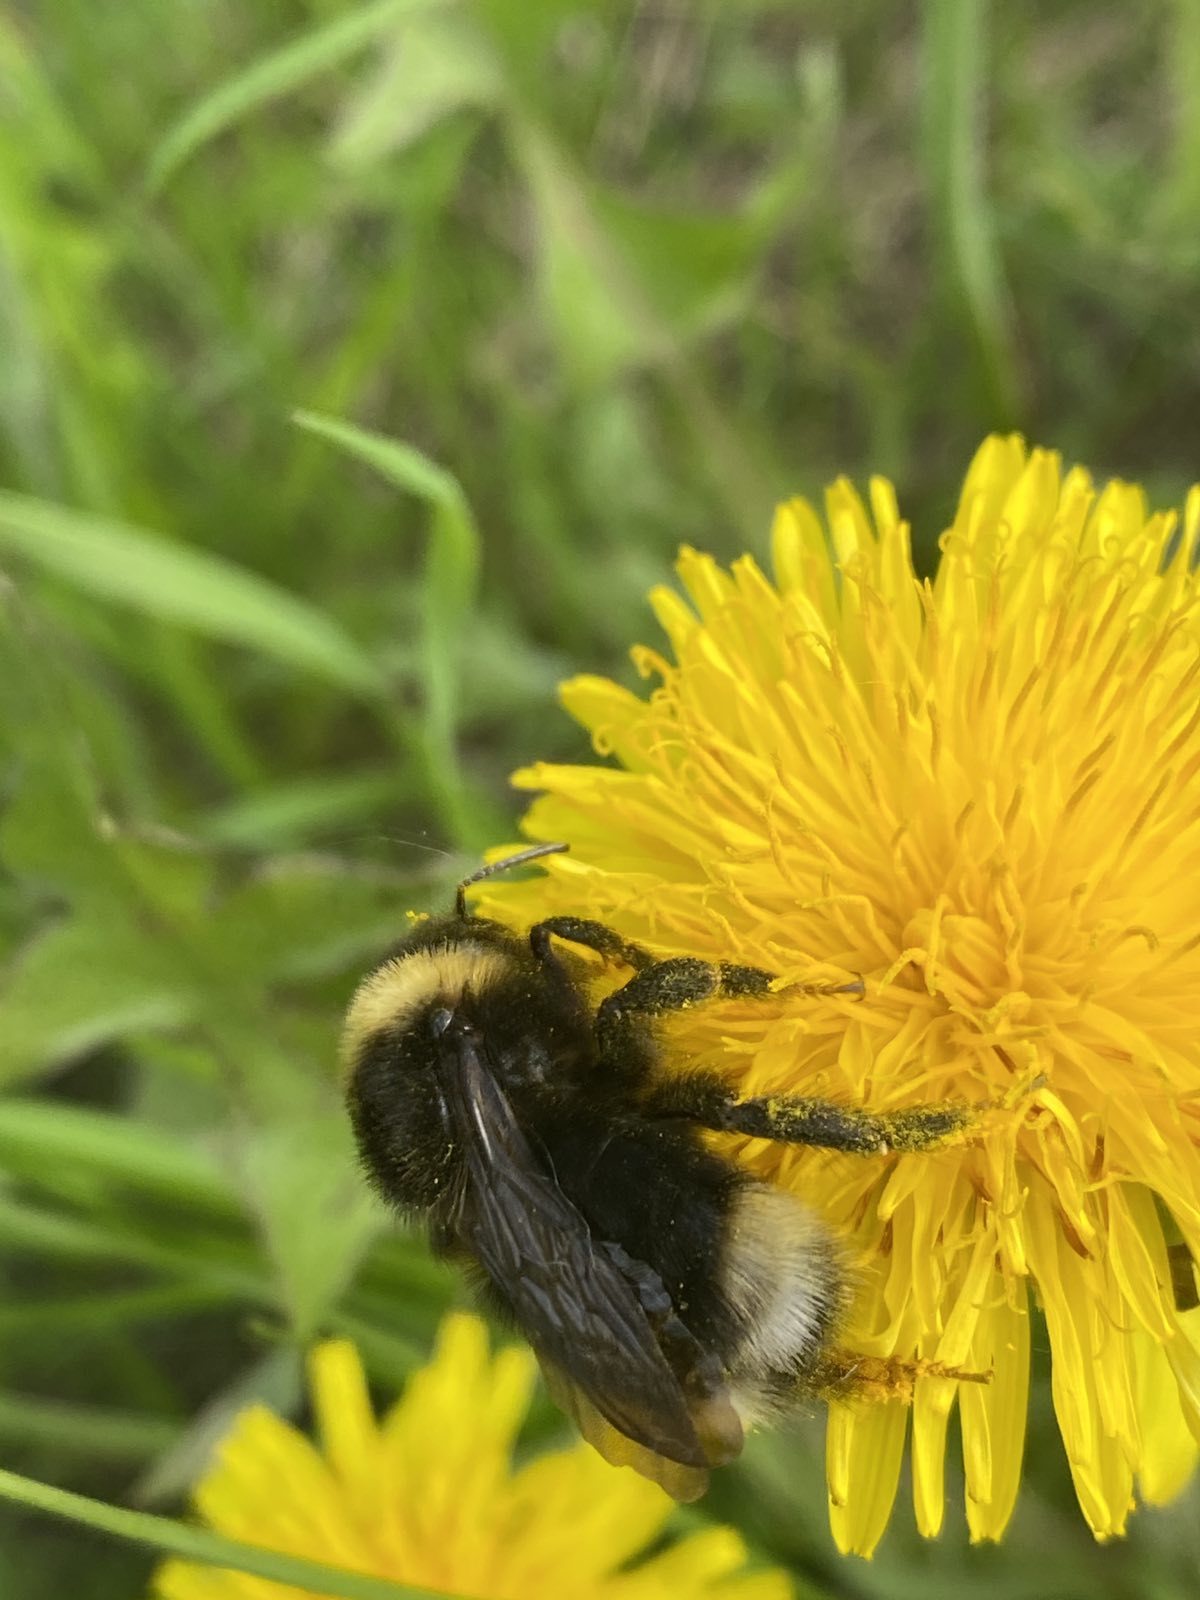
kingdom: Animalia
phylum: Arthropoda
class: Insecta
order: Hymenoptera
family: Apidae
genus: Bombus
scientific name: Bombus bohemicus
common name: Gypsy cuckoo bee
